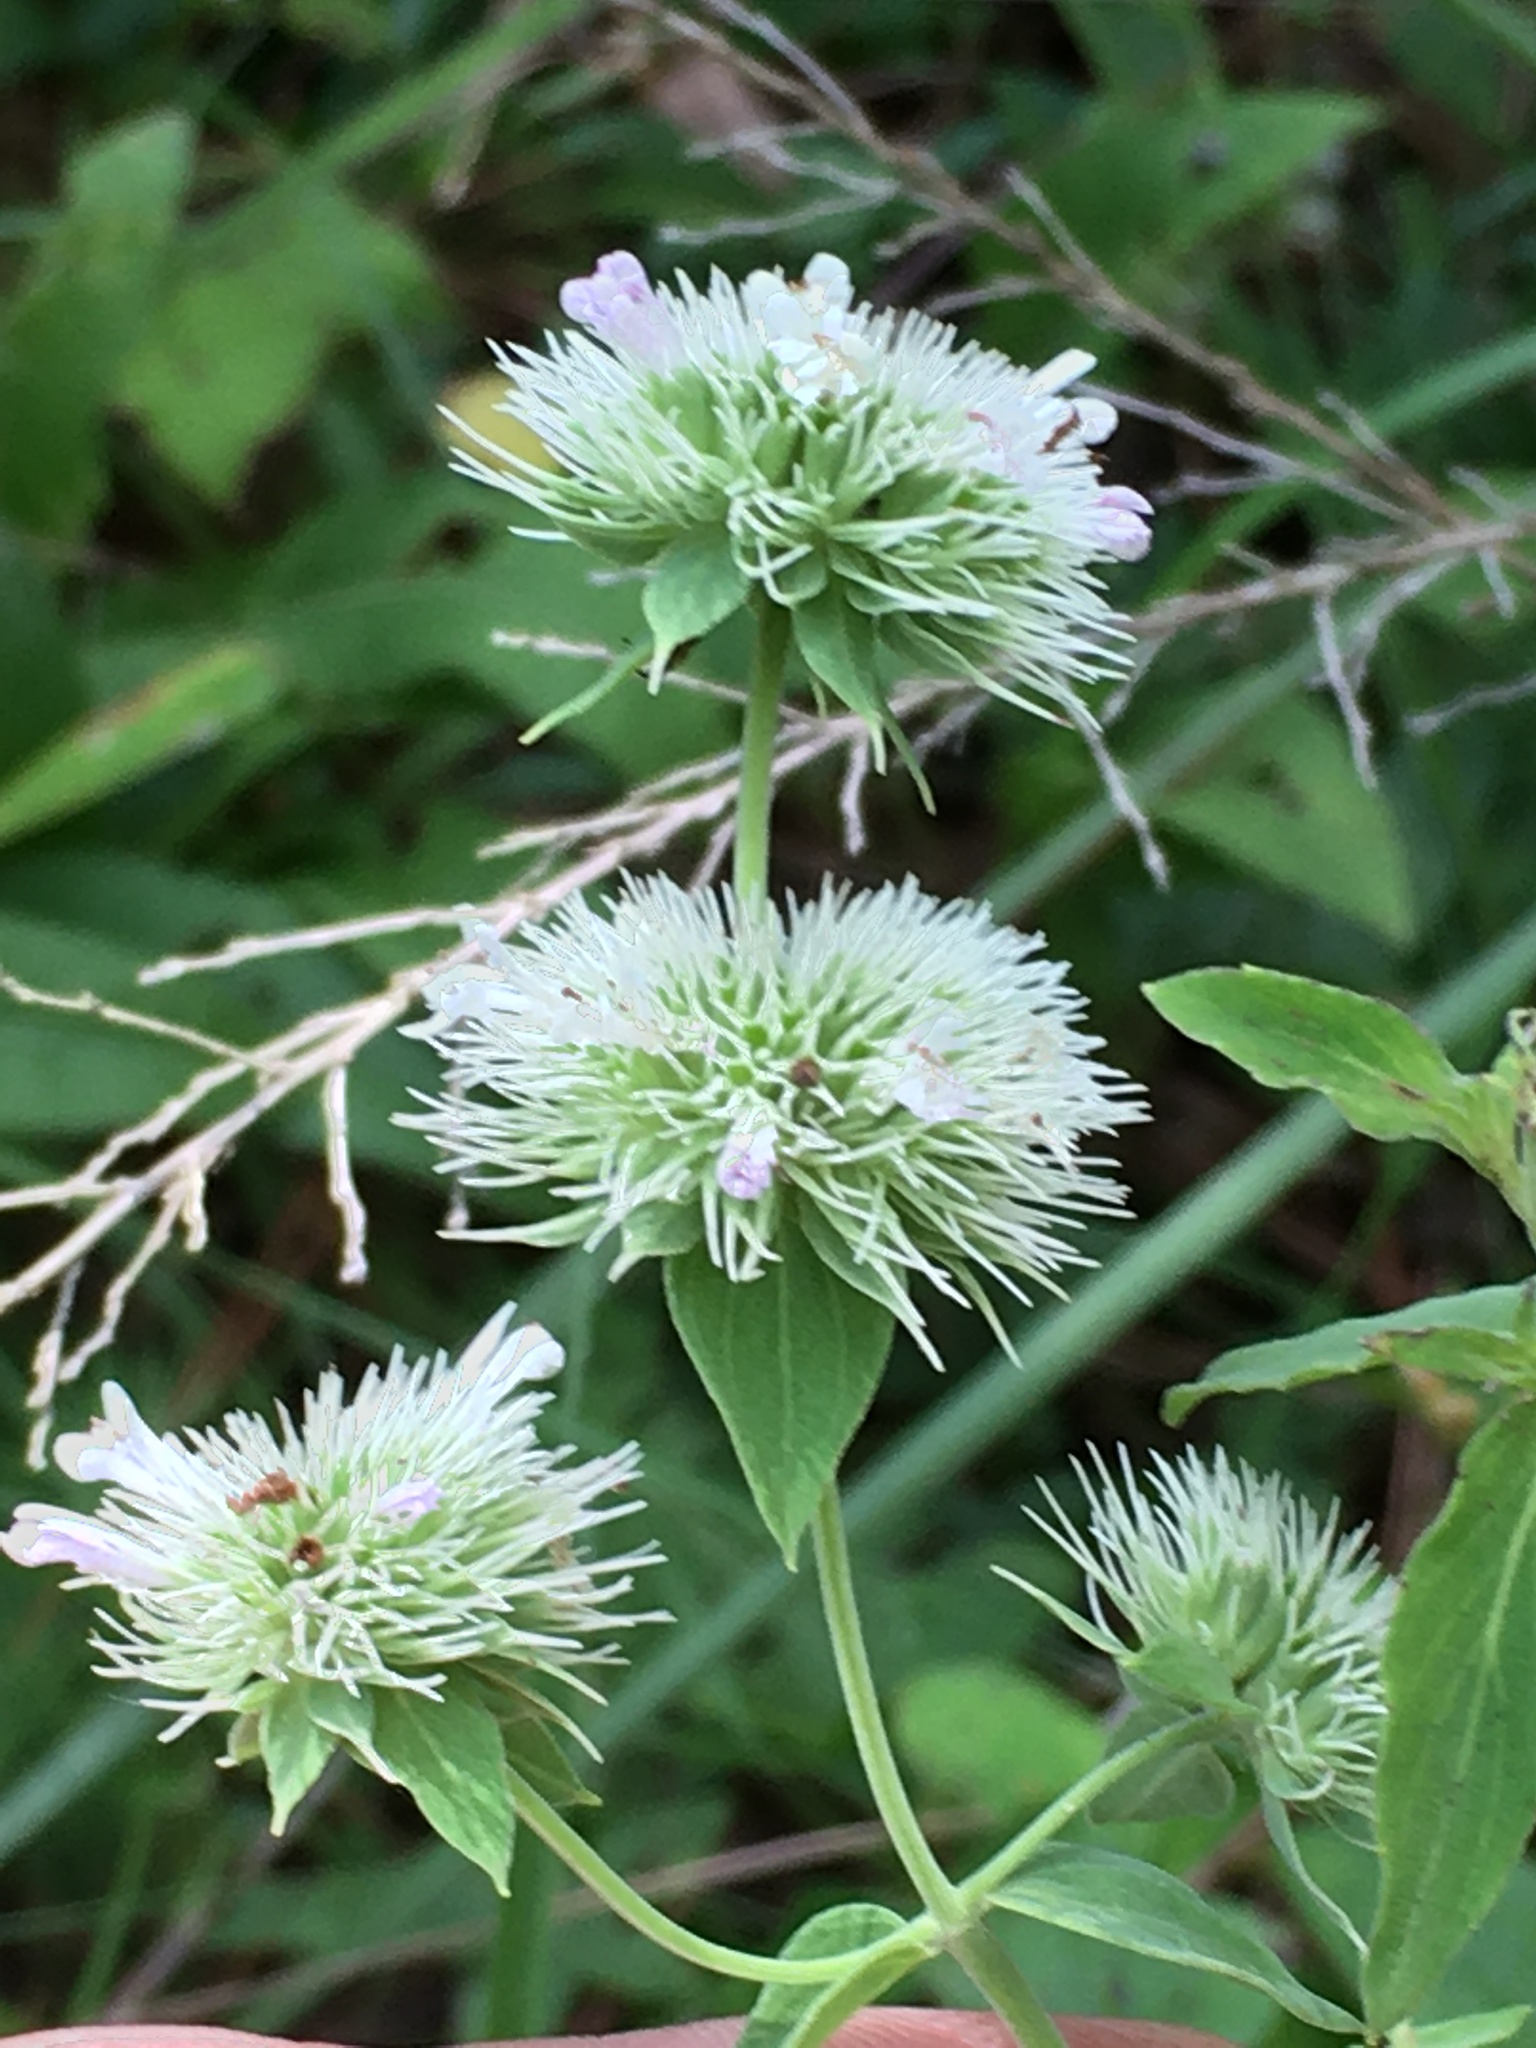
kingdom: Plantae
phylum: Tracheophyta
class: Magnoliopsida
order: Lamiales
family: Lamiaceae
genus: Pycnanthemum
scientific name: Pycnanthemum flexuosum
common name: Appalachian mountain-mint
